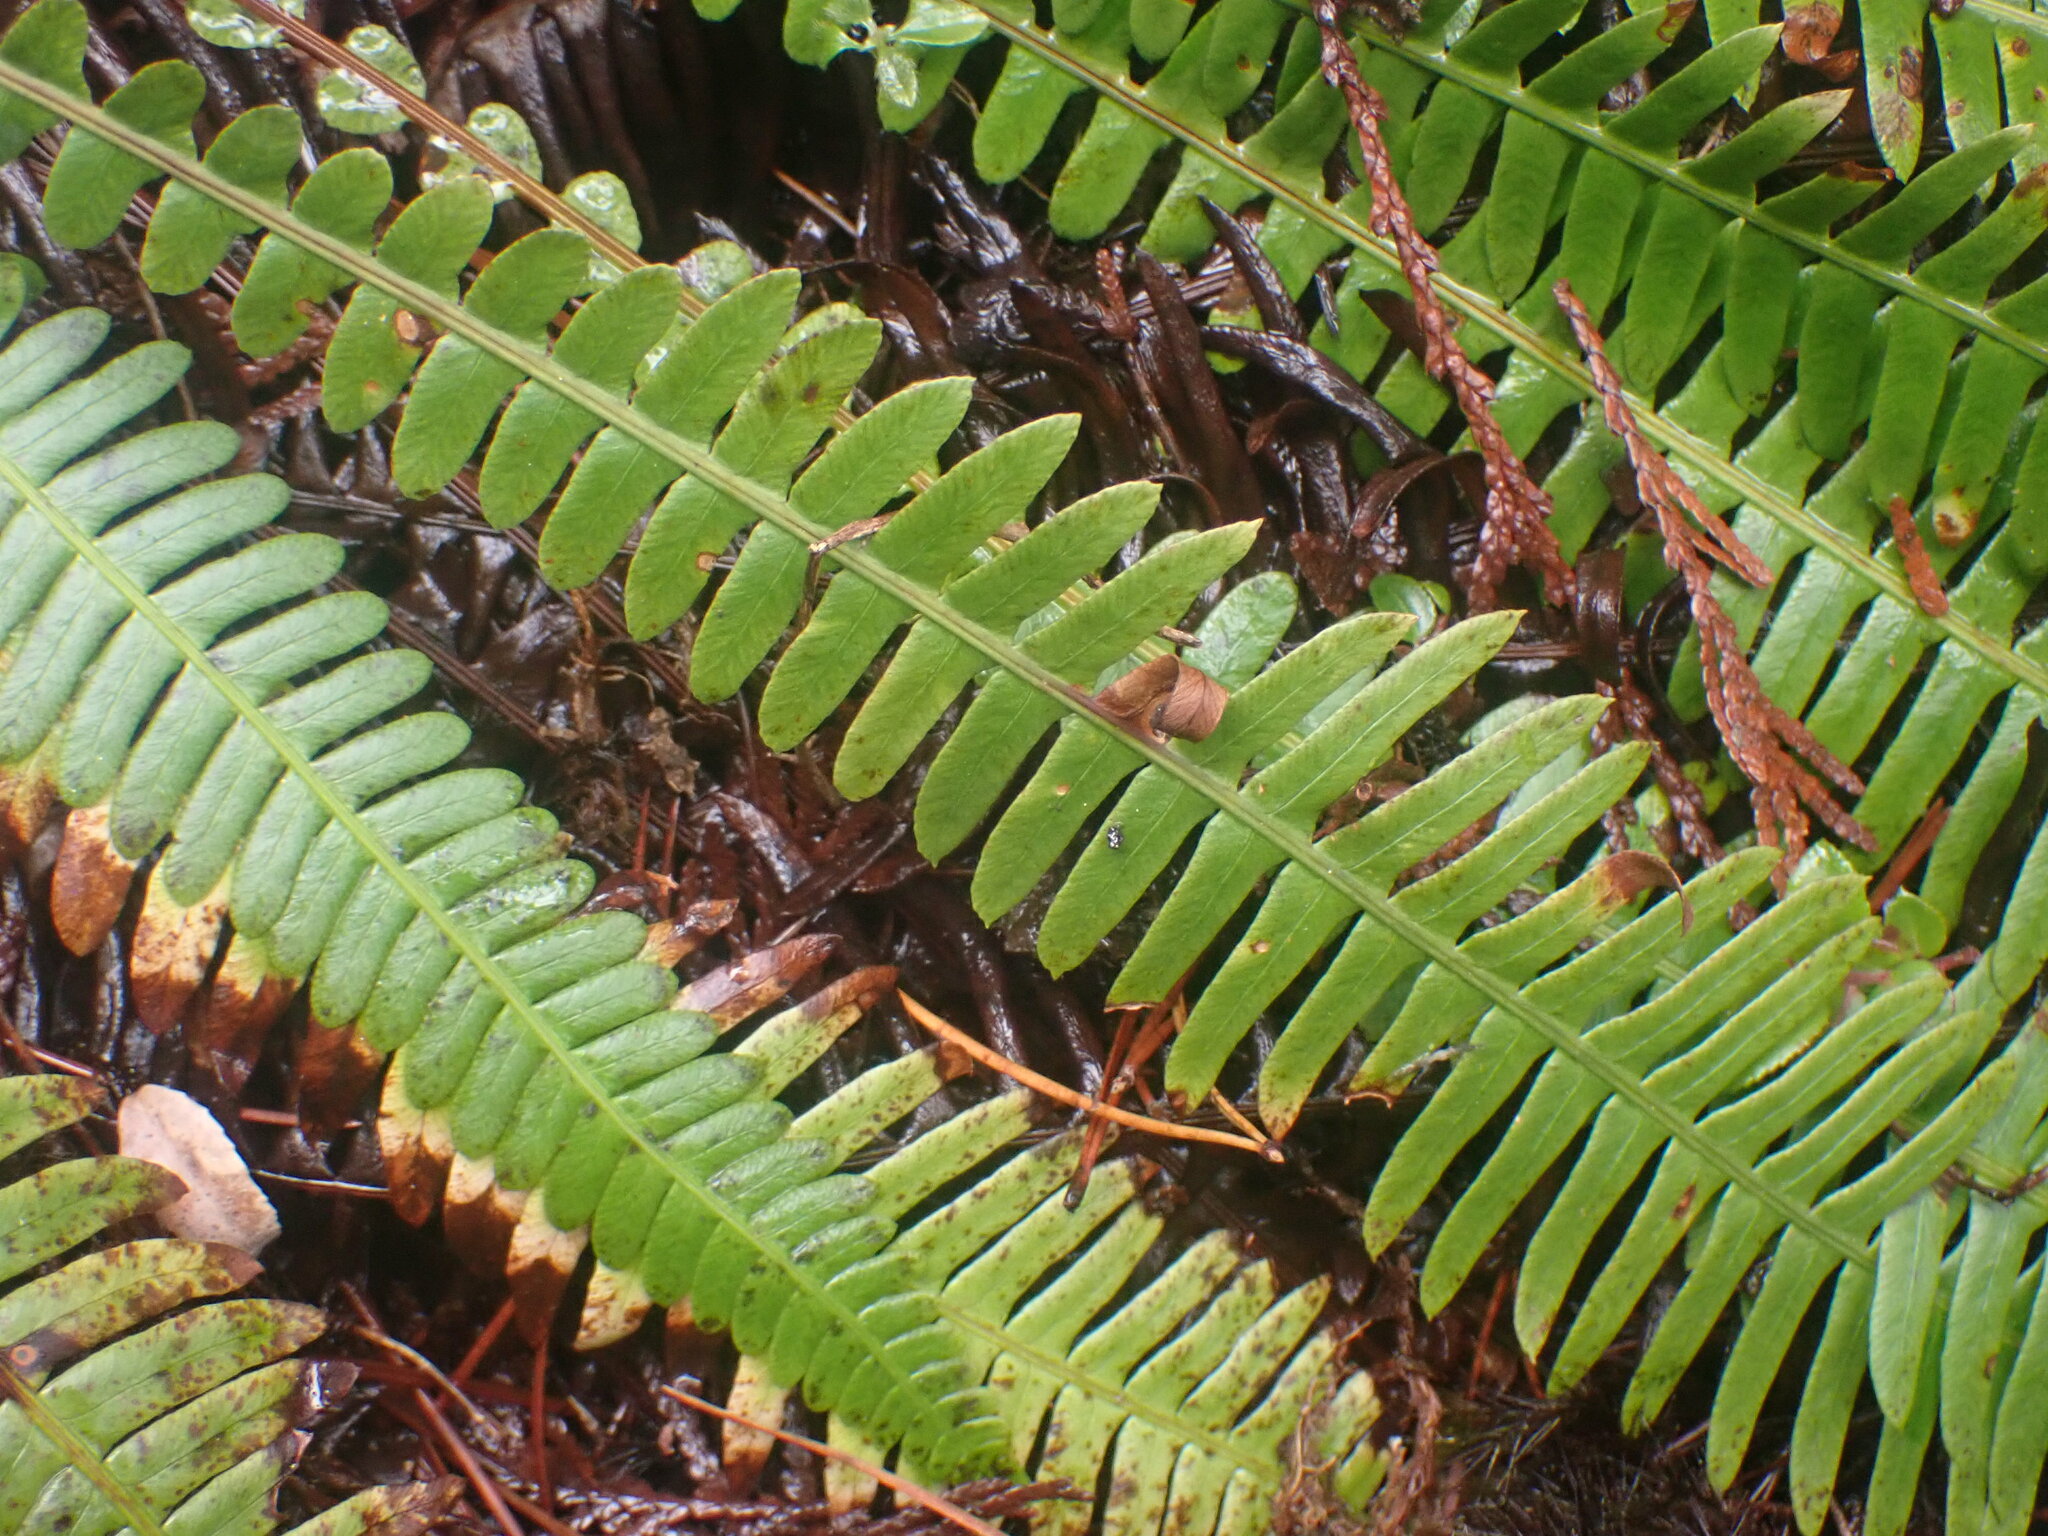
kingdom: Plantae
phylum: Tracheophyta
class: Polypodiopsida
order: Polypodiales
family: Blechnaceae
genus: Struthiopteris
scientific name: Struthiopteris spicant
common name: Deer fern
